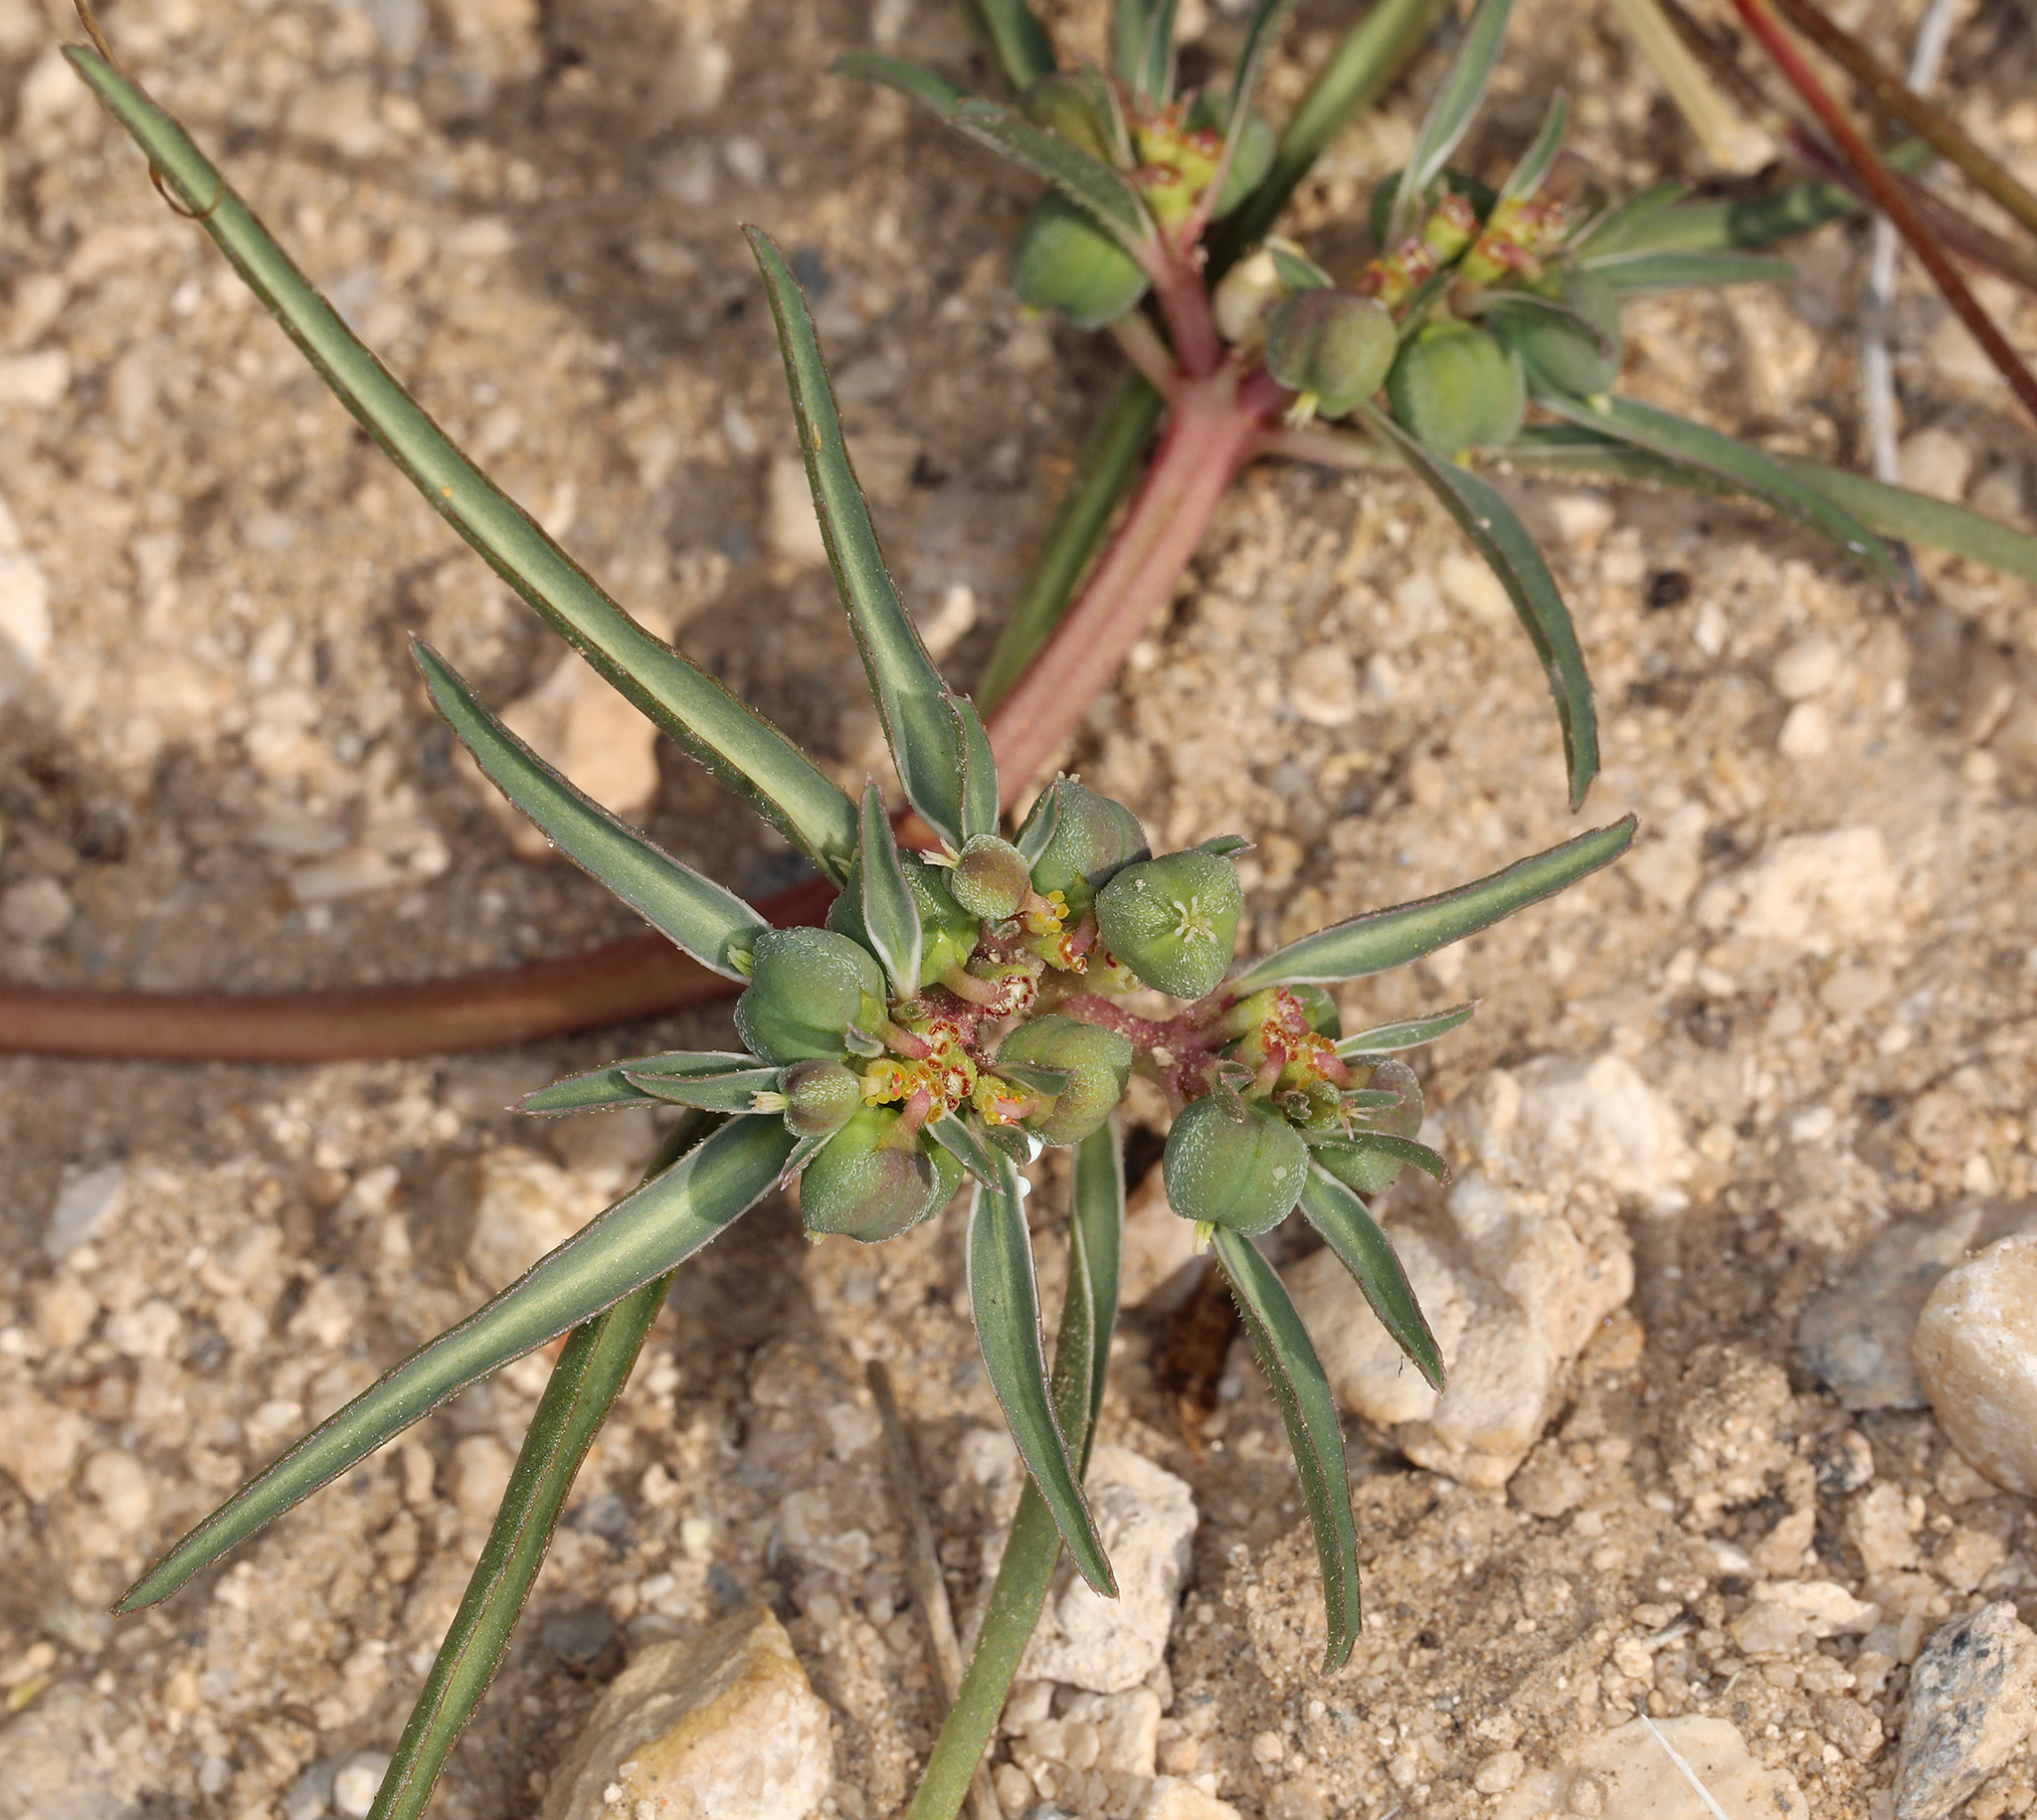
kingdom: Plantae
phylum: Tracheophyta
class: Magnoliopsida
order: Malpighiales
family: Euphorbiaceae
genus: Euphorbia
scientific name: Euphorbia exstipulata
